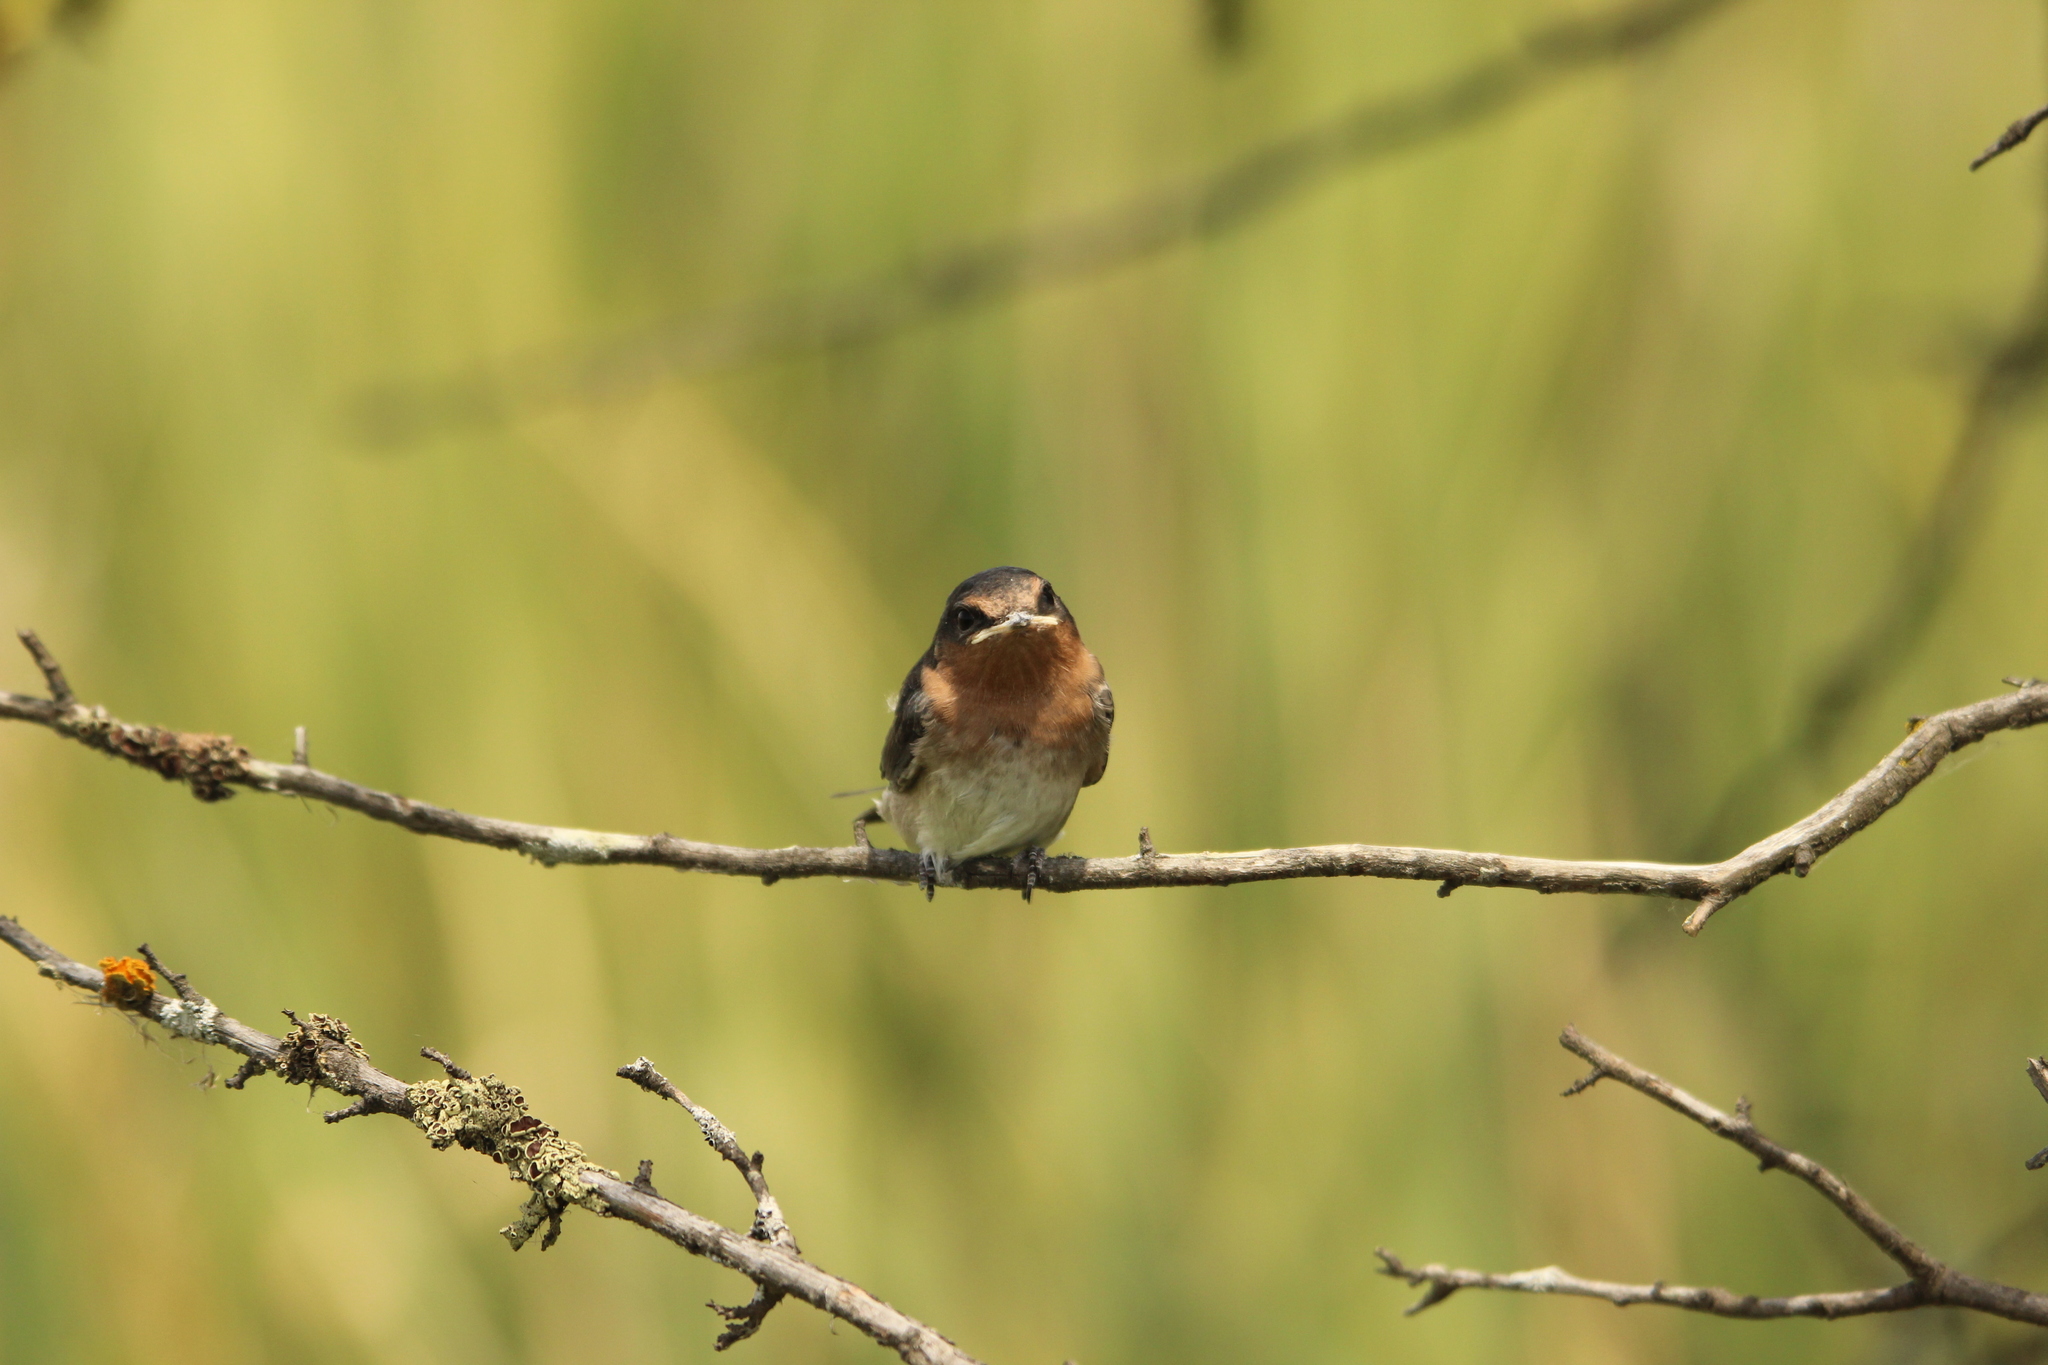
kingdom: Animalia
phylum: Chordata
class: Aves
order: Passeriformes
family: Hirundinidae
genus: Hirundo
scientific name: Hirundo neoxena
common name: Welcome swallow
